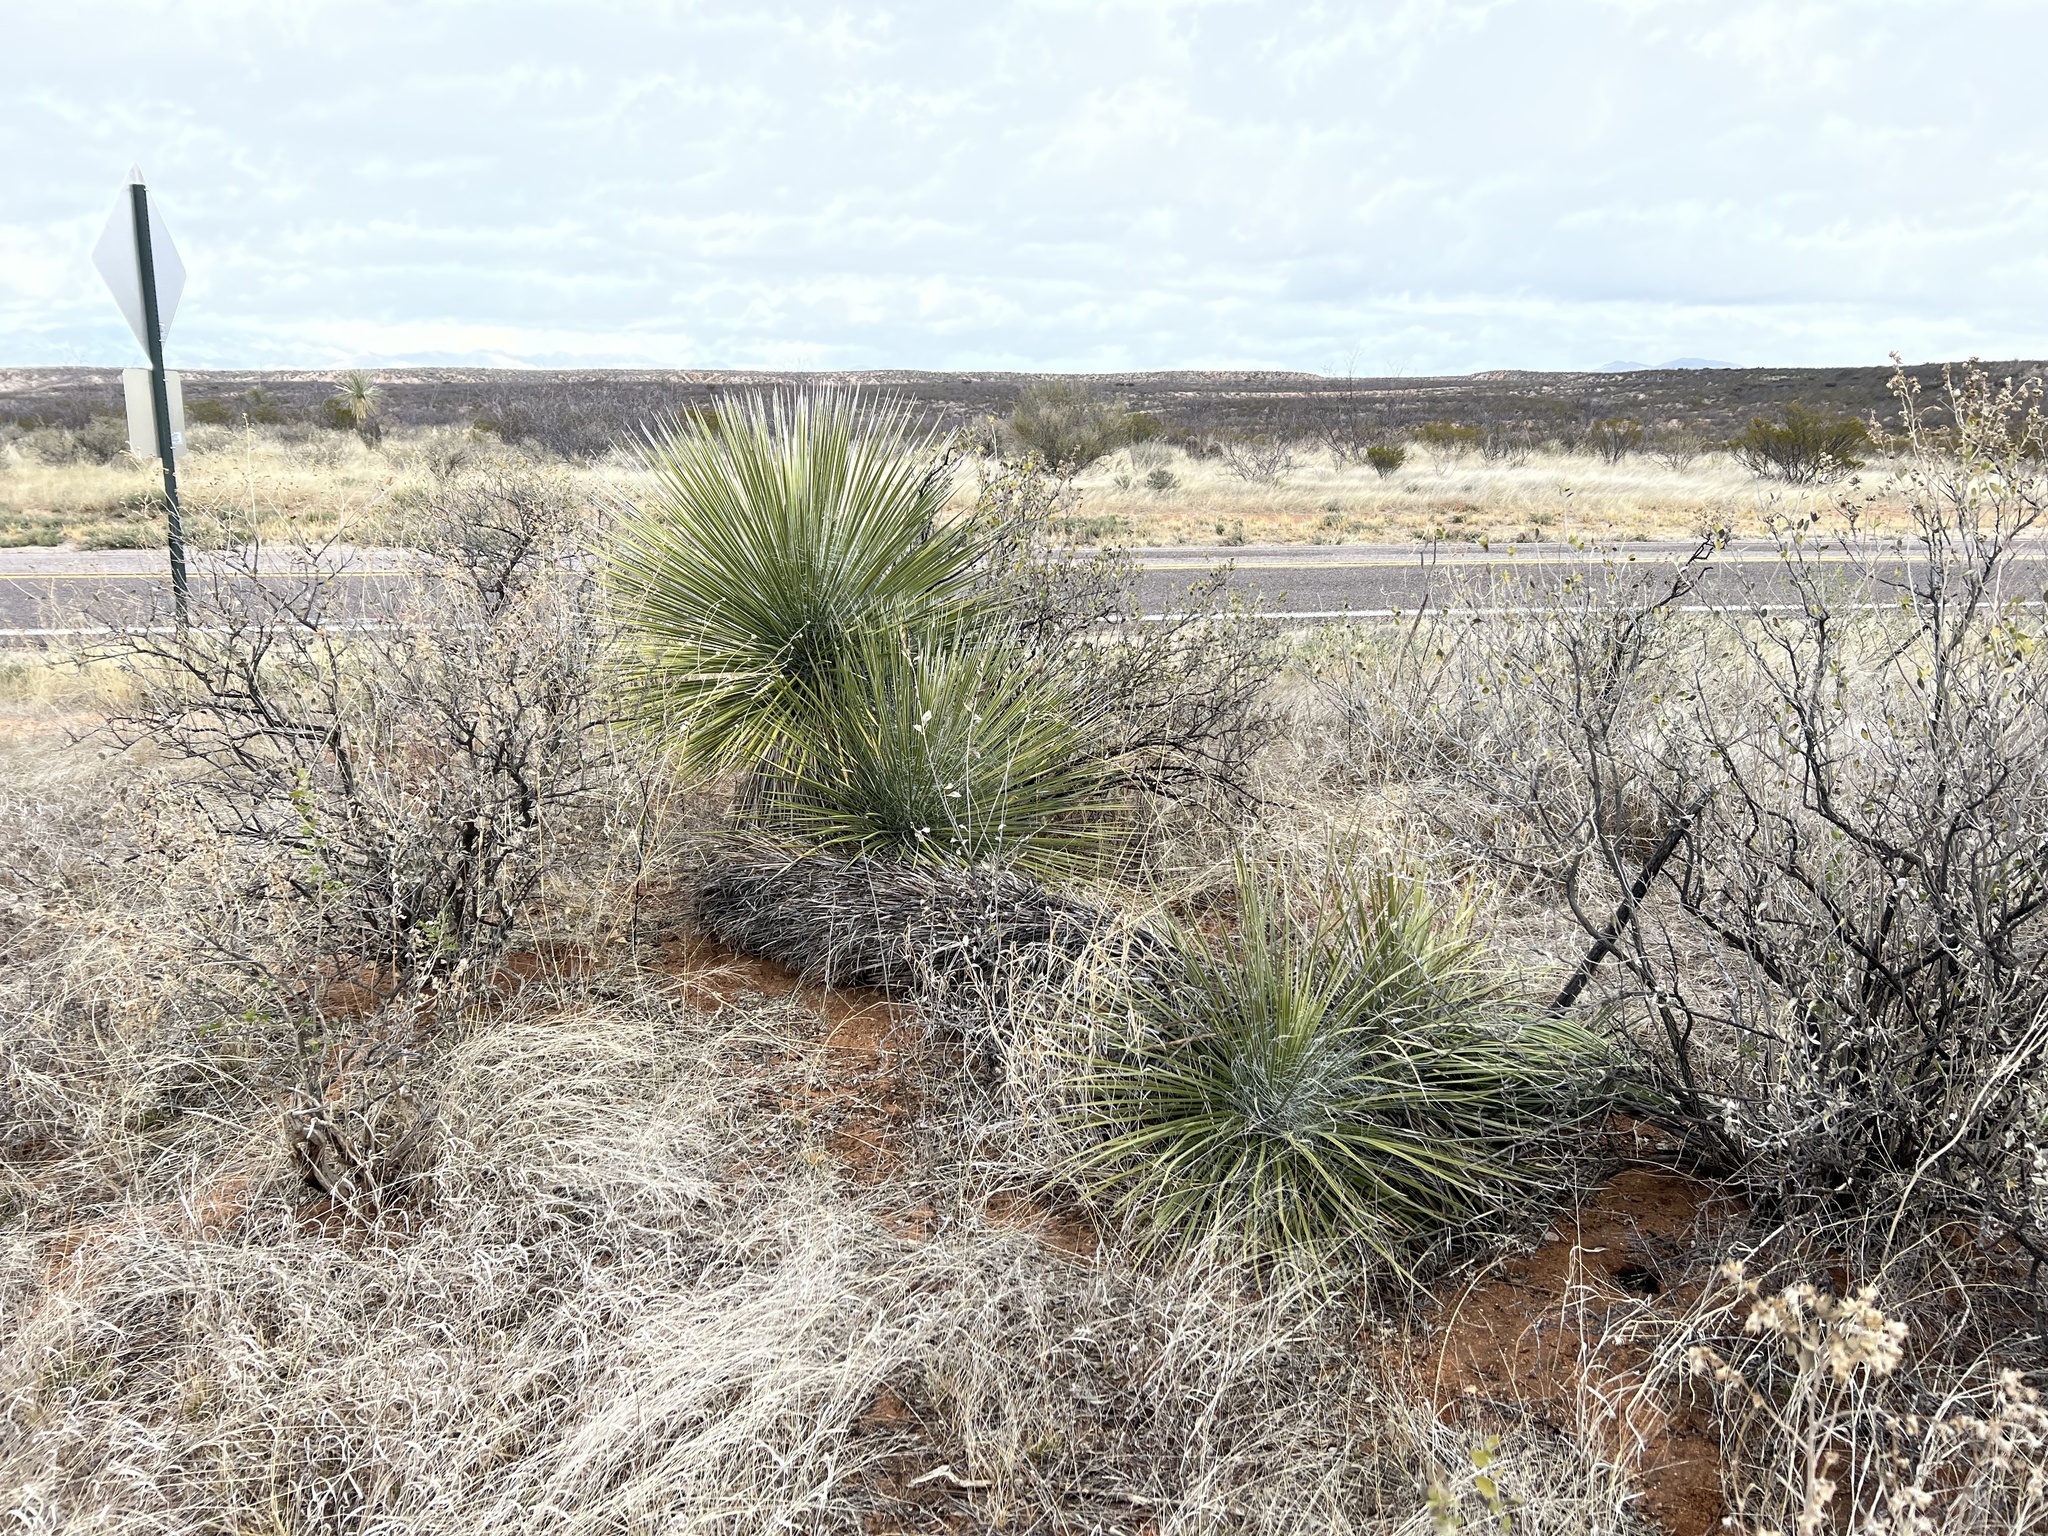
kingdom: Plantae
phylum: Tracheophyta
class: Liliopsida
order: Asparagales
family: Asparagaceae
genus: Yucca
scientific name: Yucca elata
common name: Palmella
